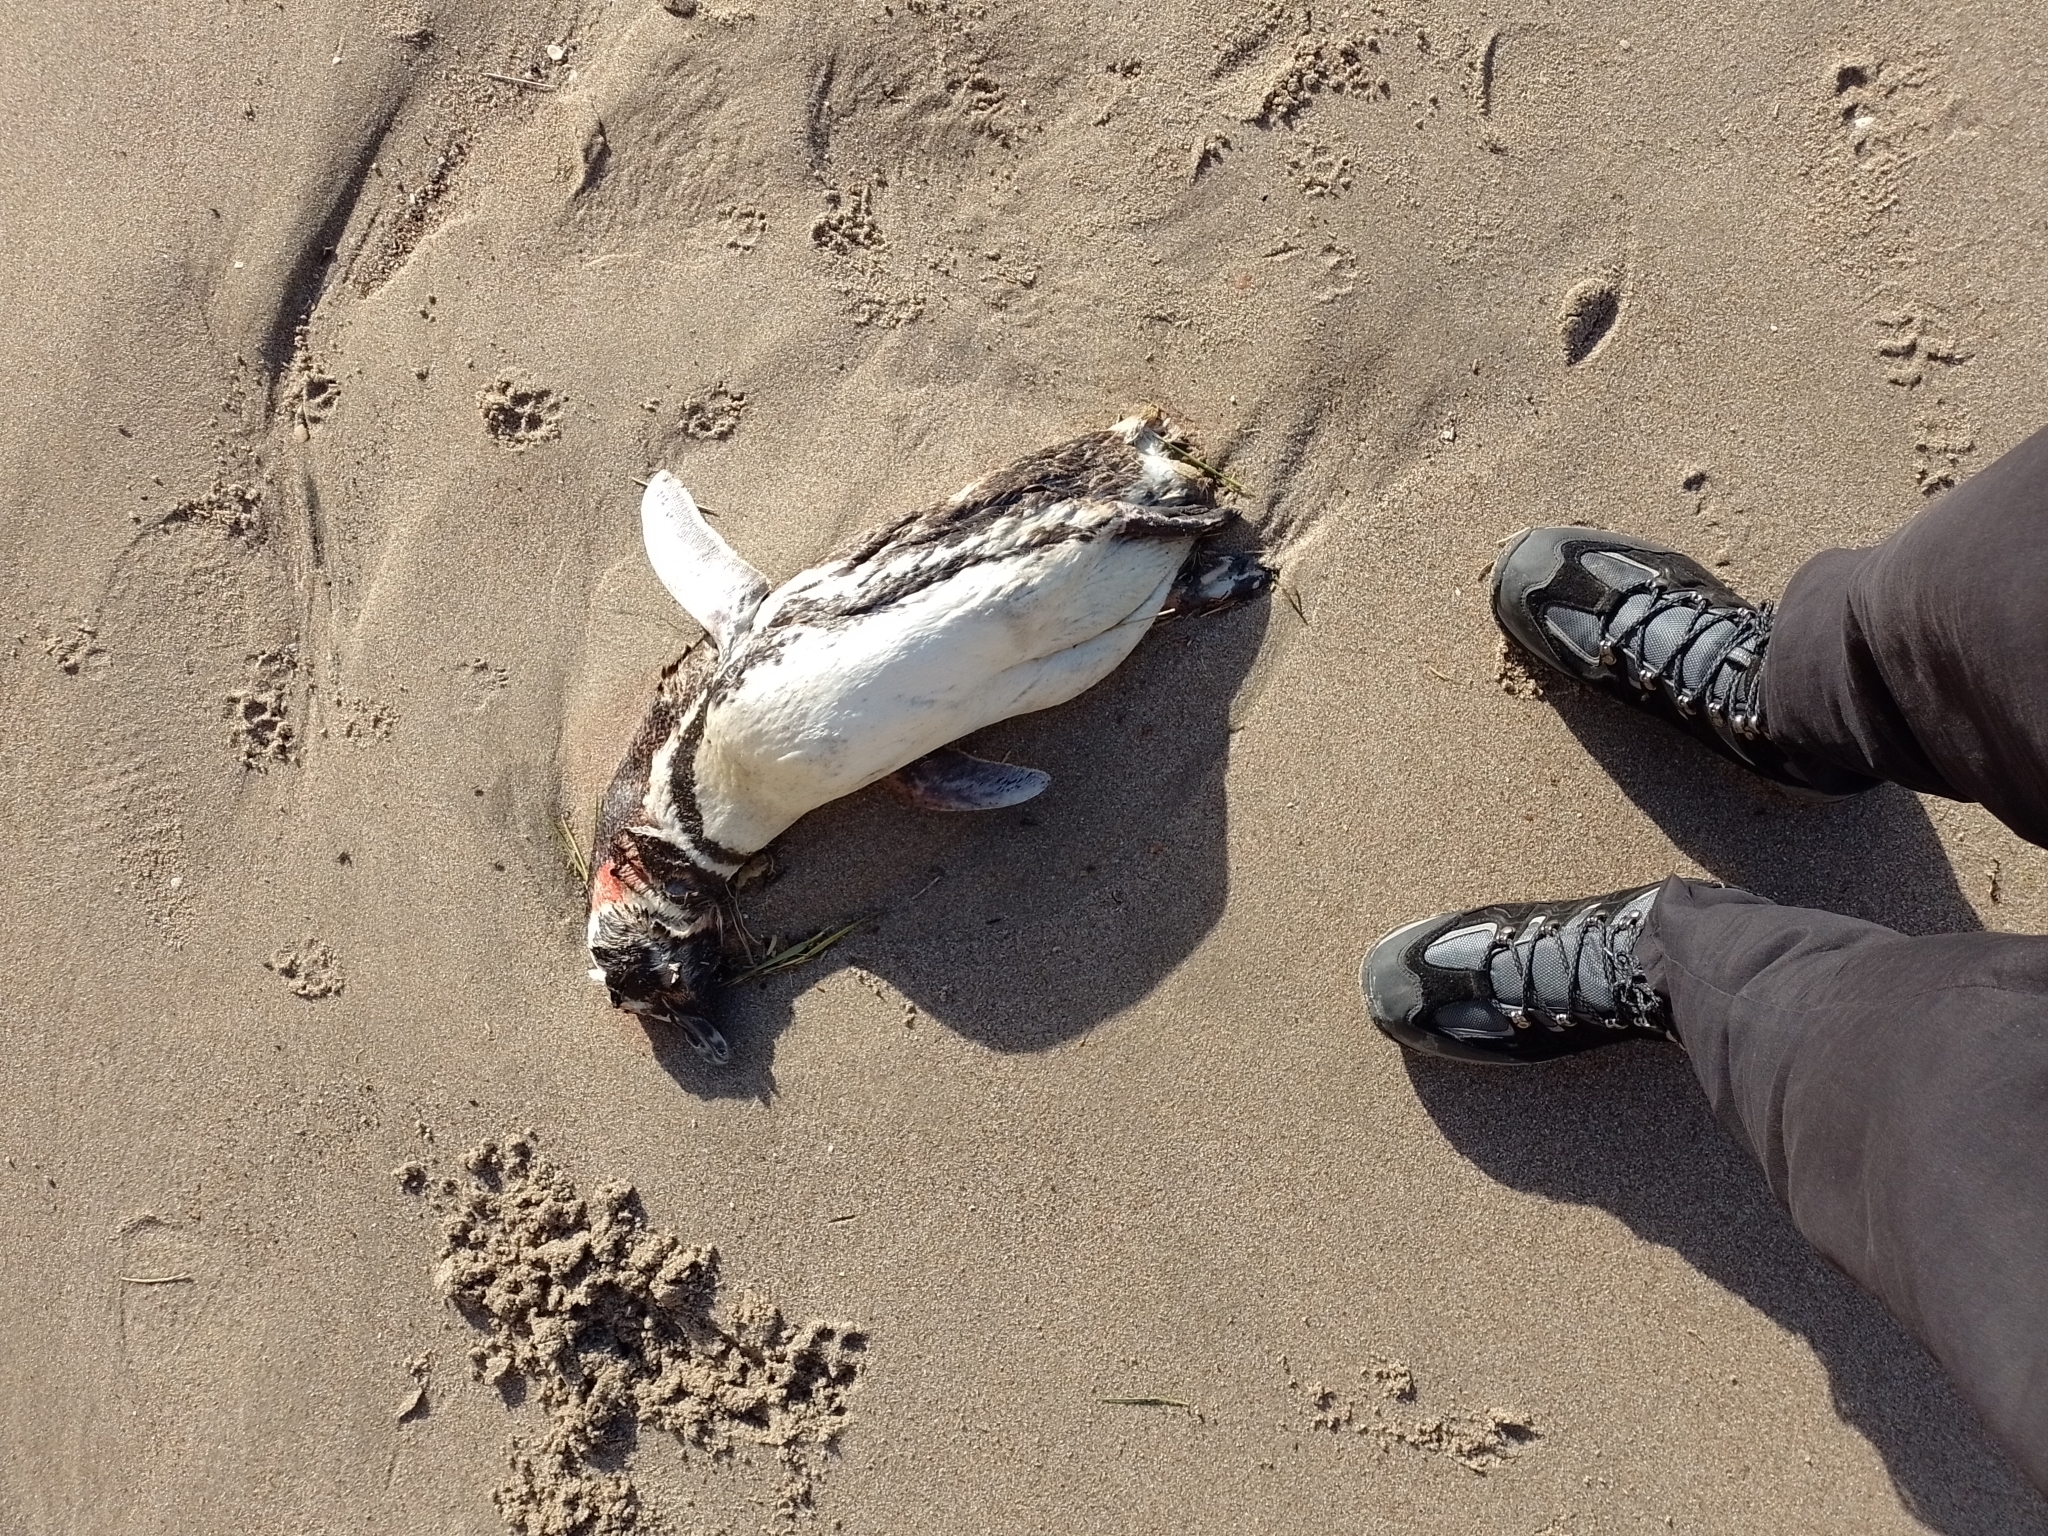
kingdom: Animalia
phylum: Chordata
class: Aves
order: Sphenisciformes
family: Spheniscidae
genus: Spheniscus
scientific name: Spheniscus magellanicus
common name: Magellanic penguin
